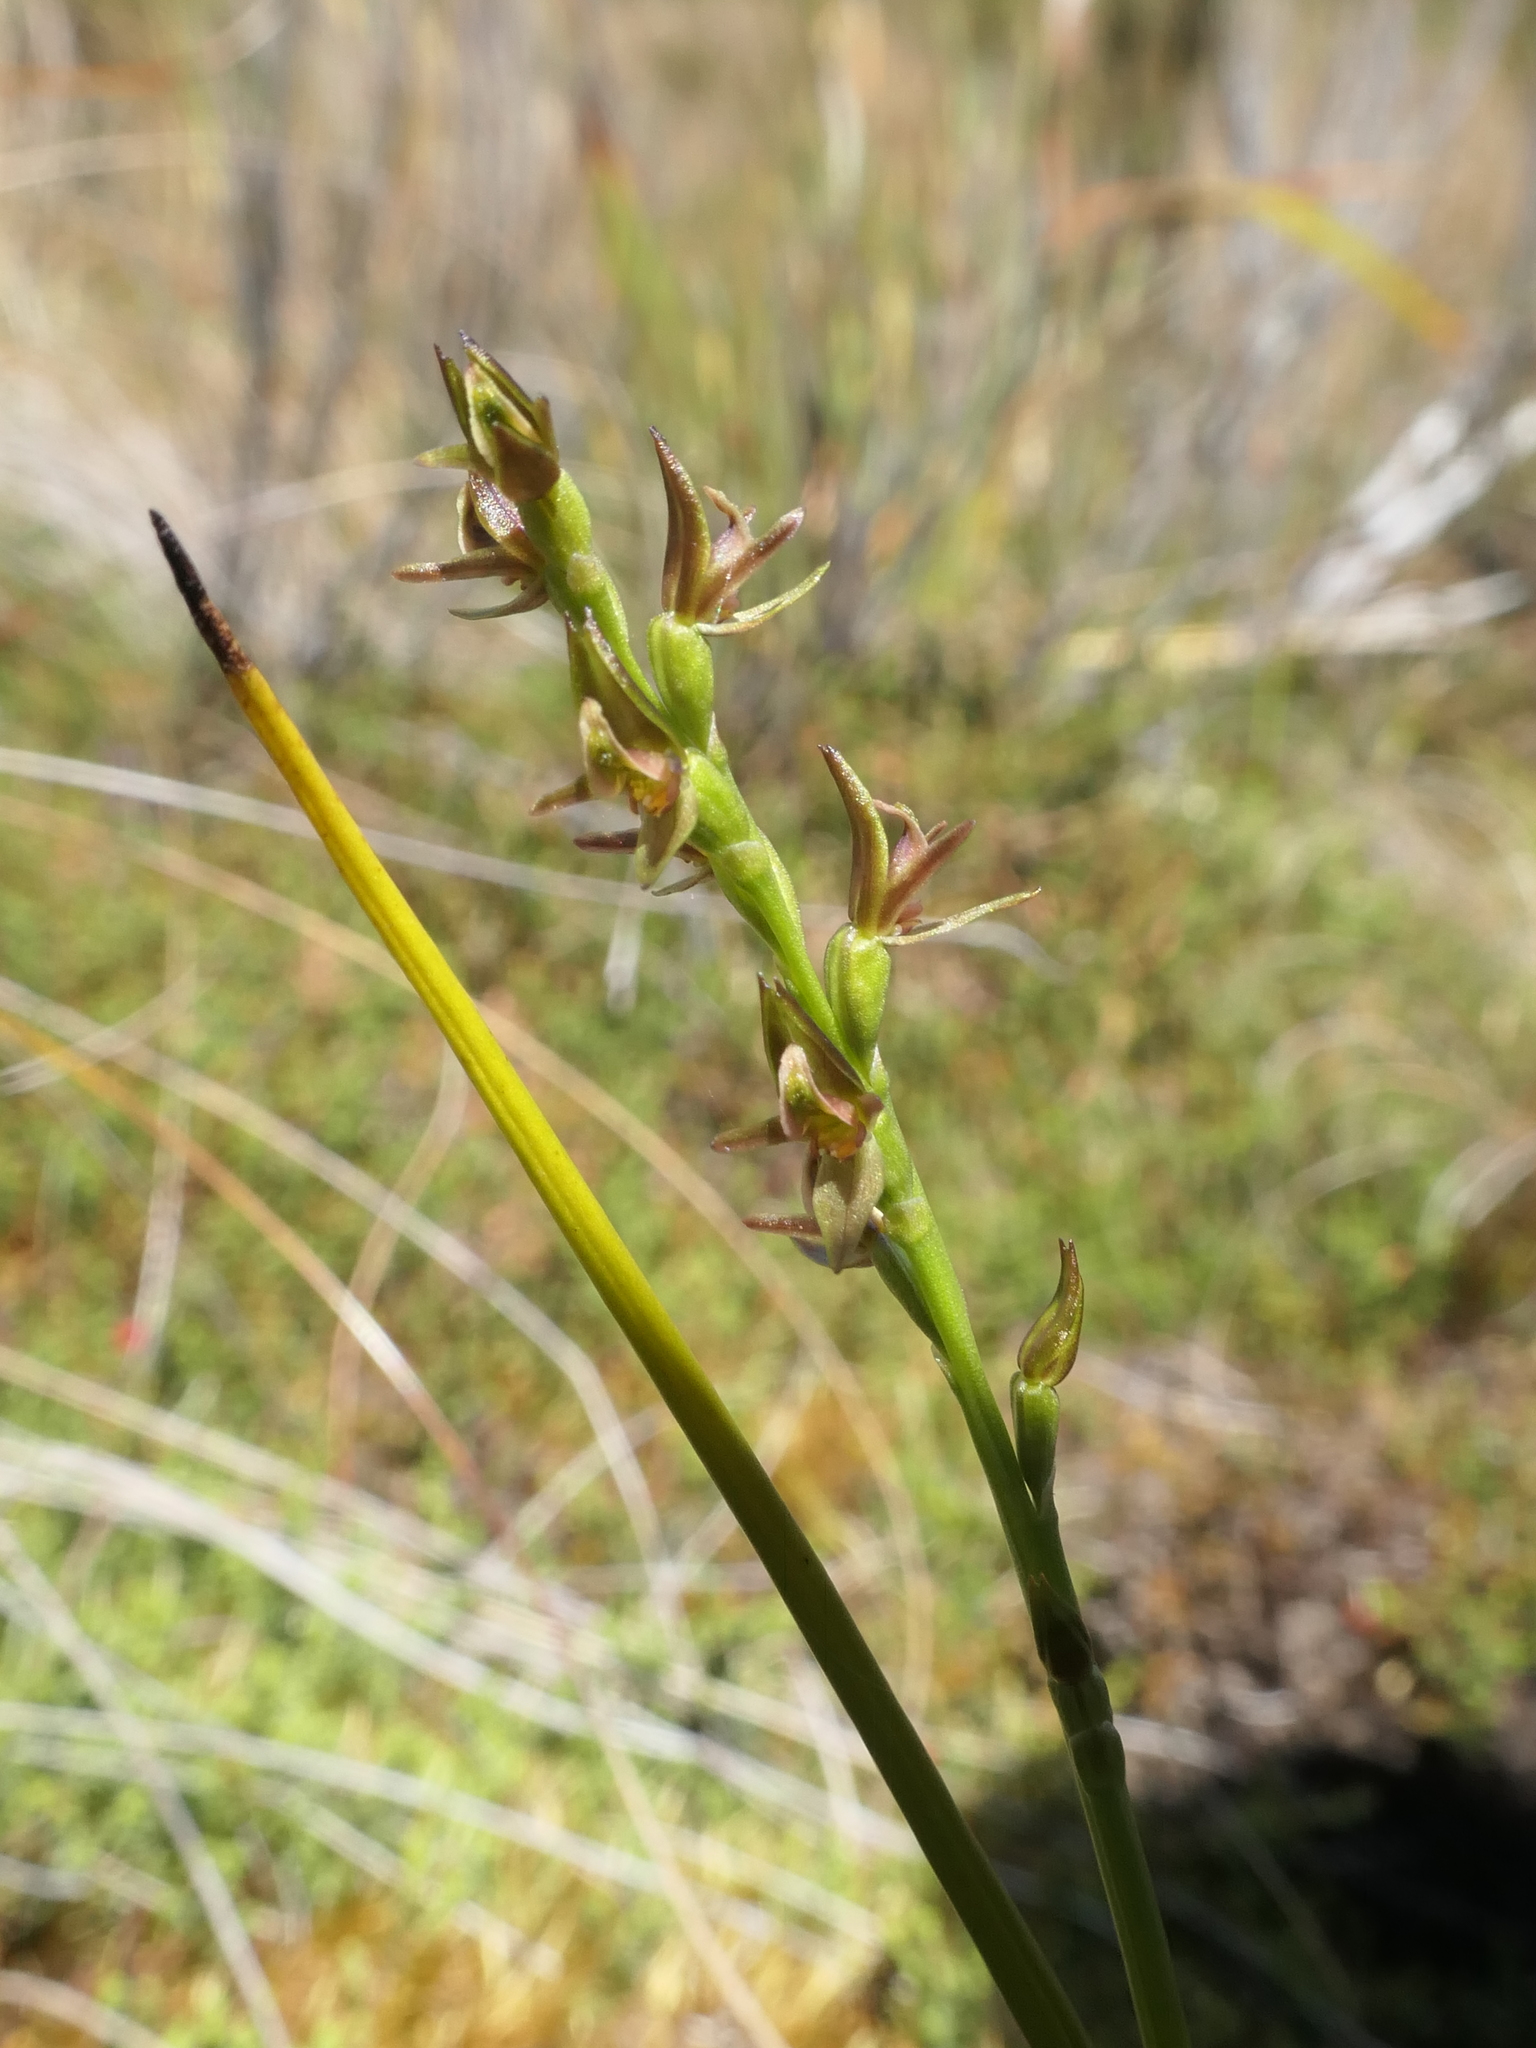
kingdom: Plantae
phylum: Tracheophyta
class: Liliopsida
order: Asparagales
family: Orchidaceae
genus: Prasophyllum
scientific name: Prasophyllum colensoi
